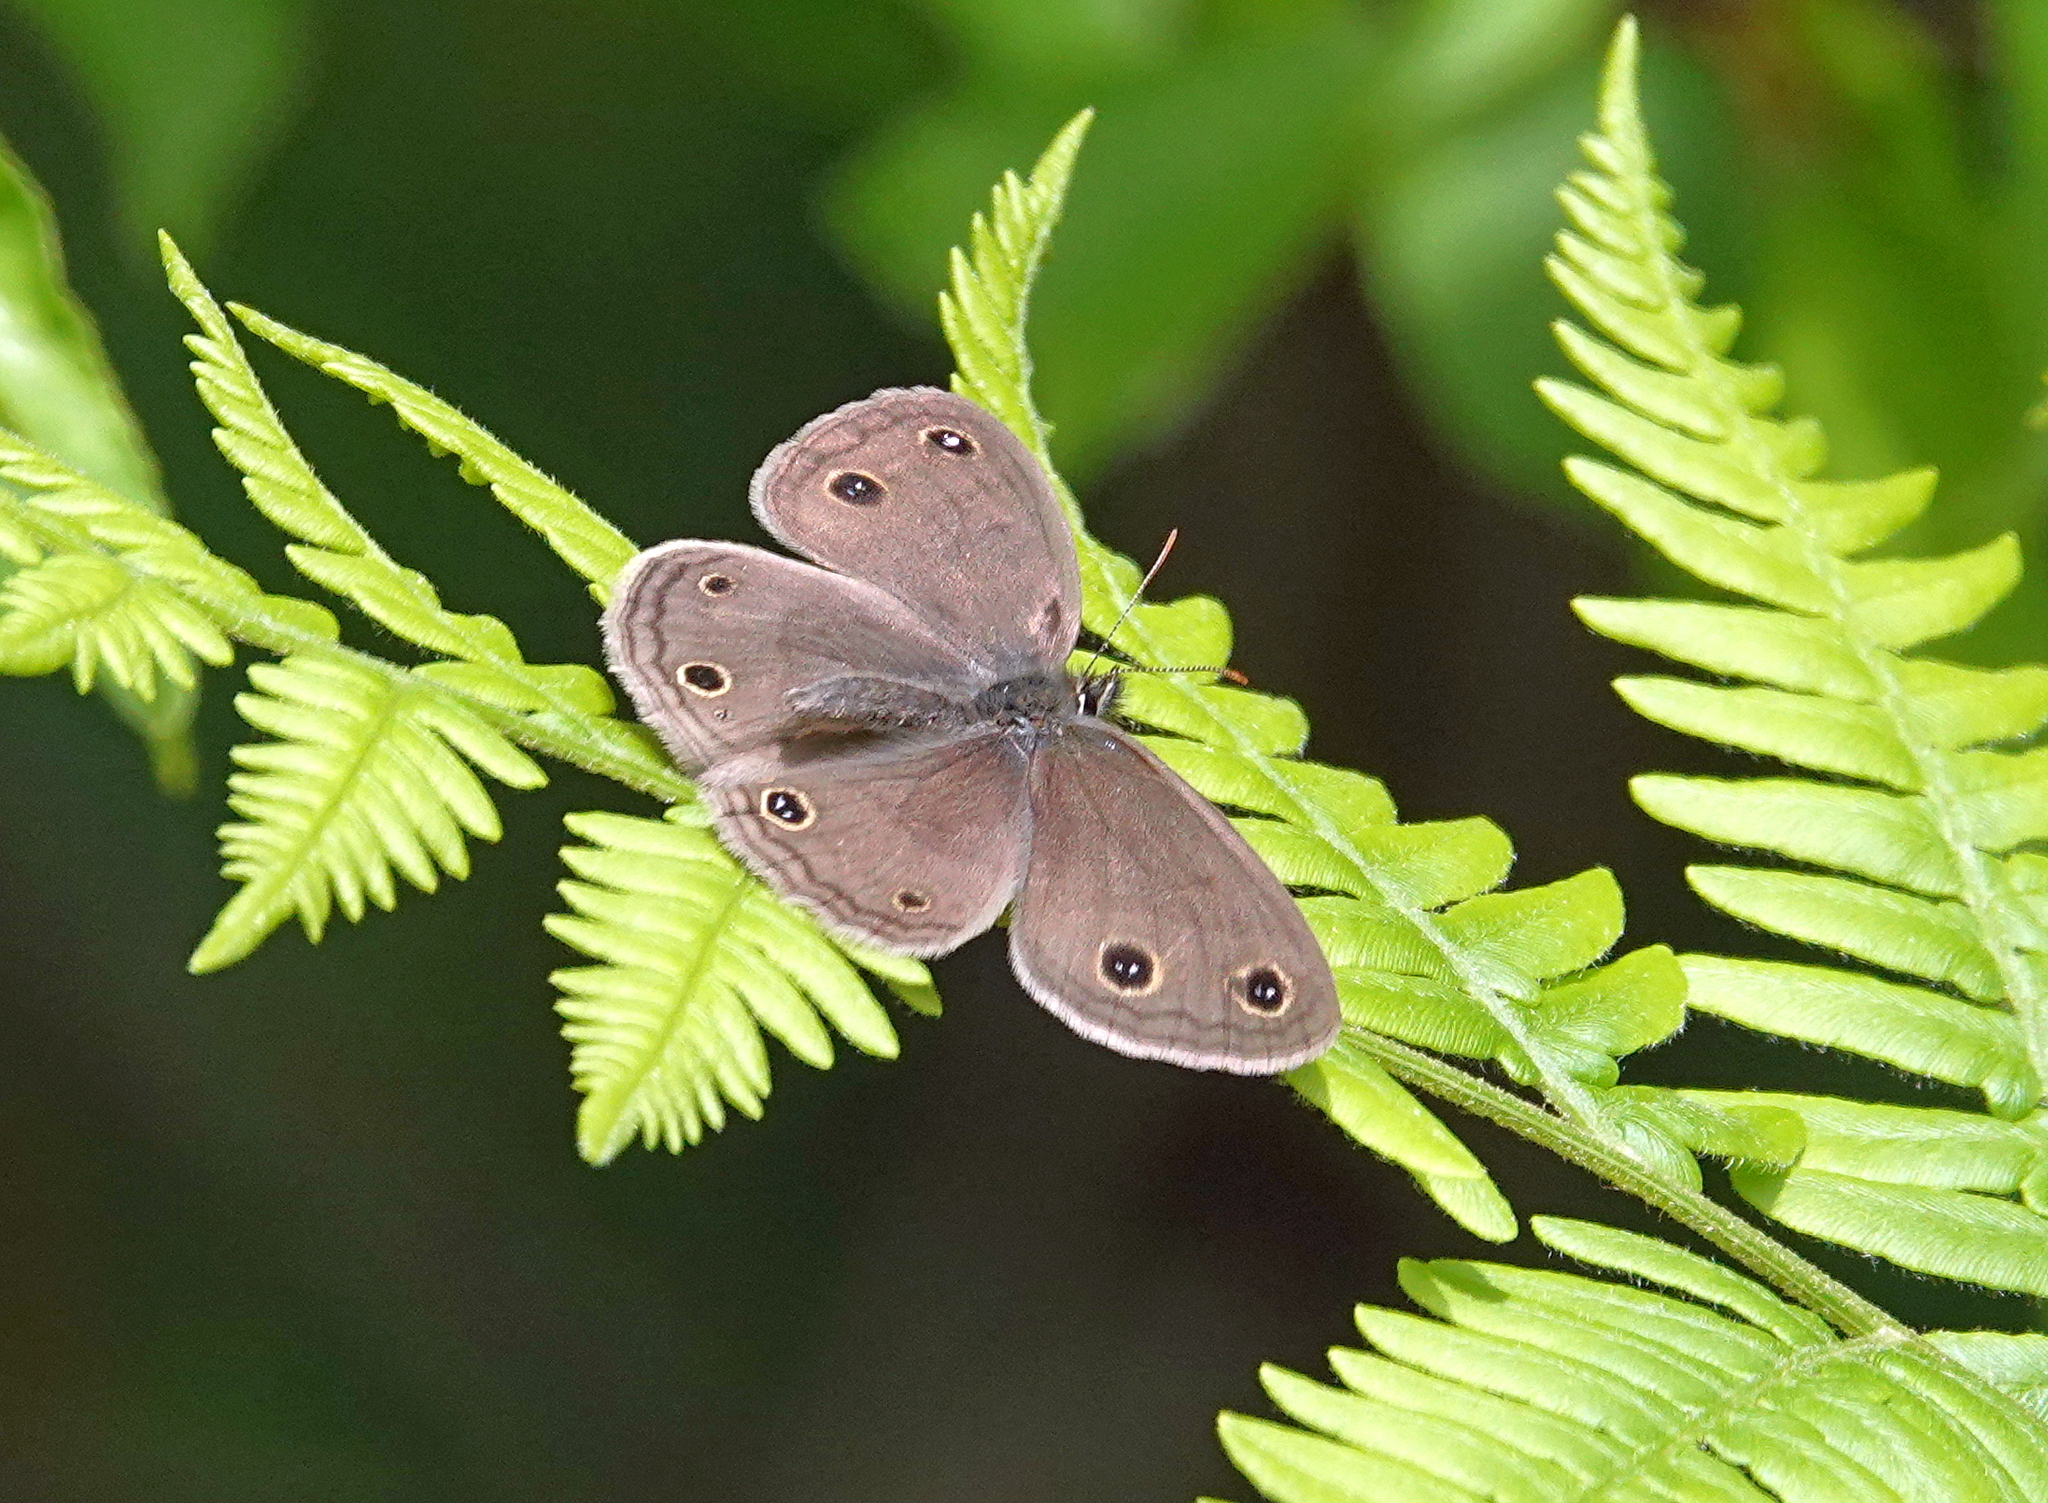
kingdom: Animalia
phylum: Arthropoda
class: Insecta
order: Lepidoptera
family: Nymphalidae
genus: Euptychia
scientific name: Euptychia cymela
